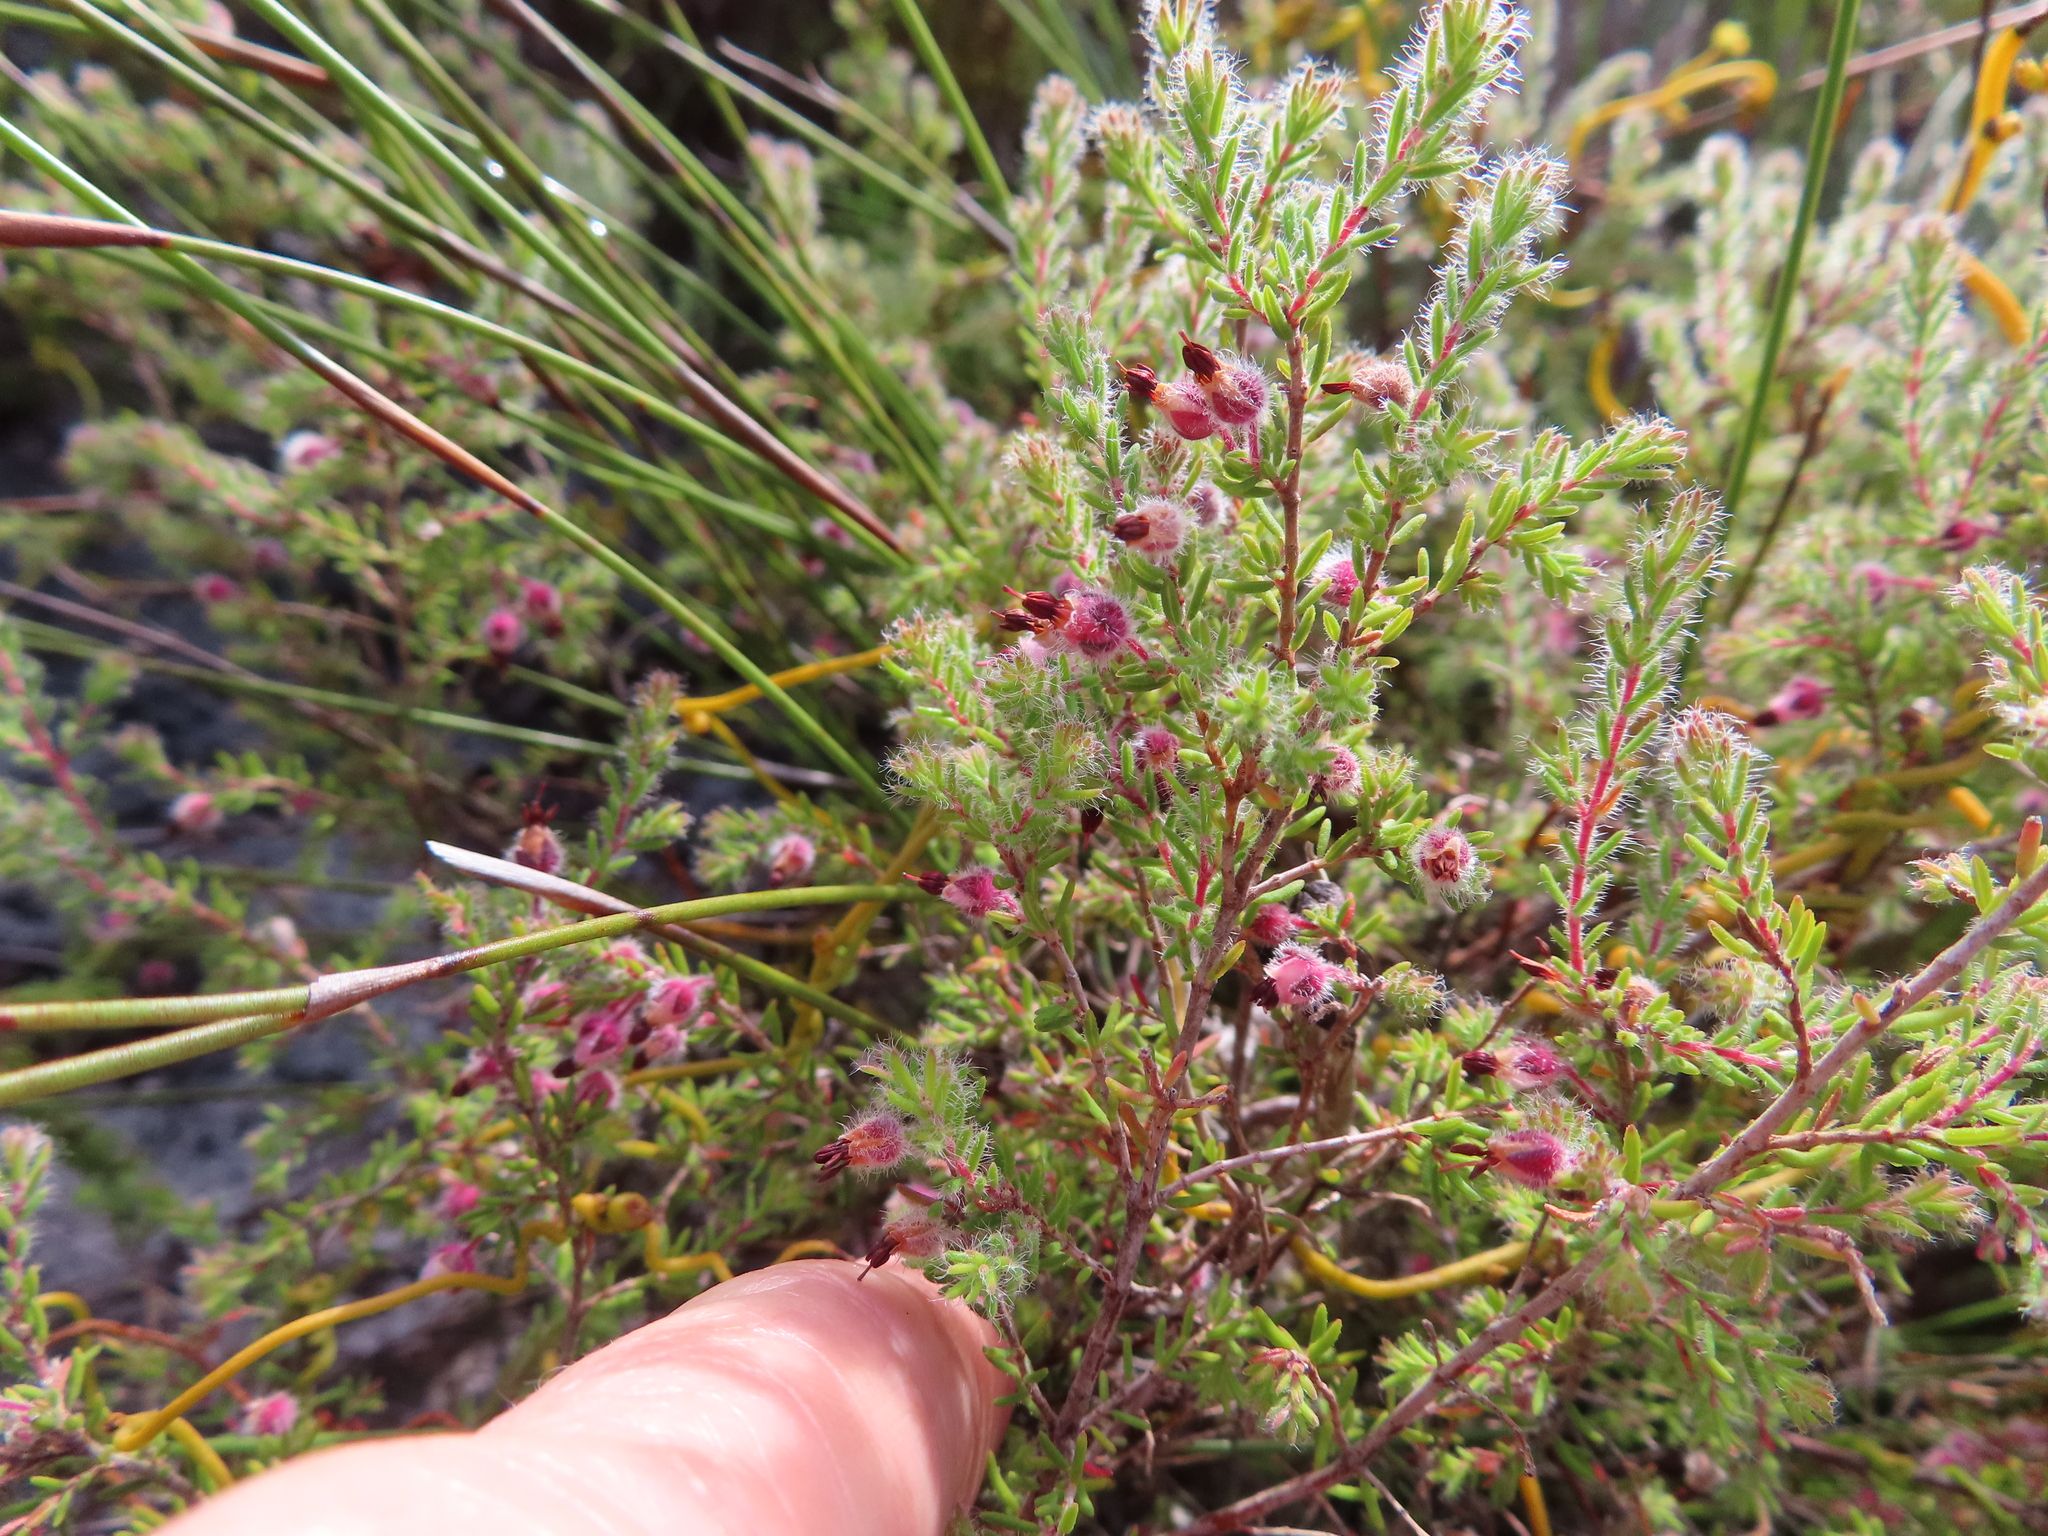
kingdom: Plantae
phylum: Tracheophyta
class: Magnoliopsida
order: Ericales
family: Ericaceae
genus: Erica
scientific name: Erica bruniades
